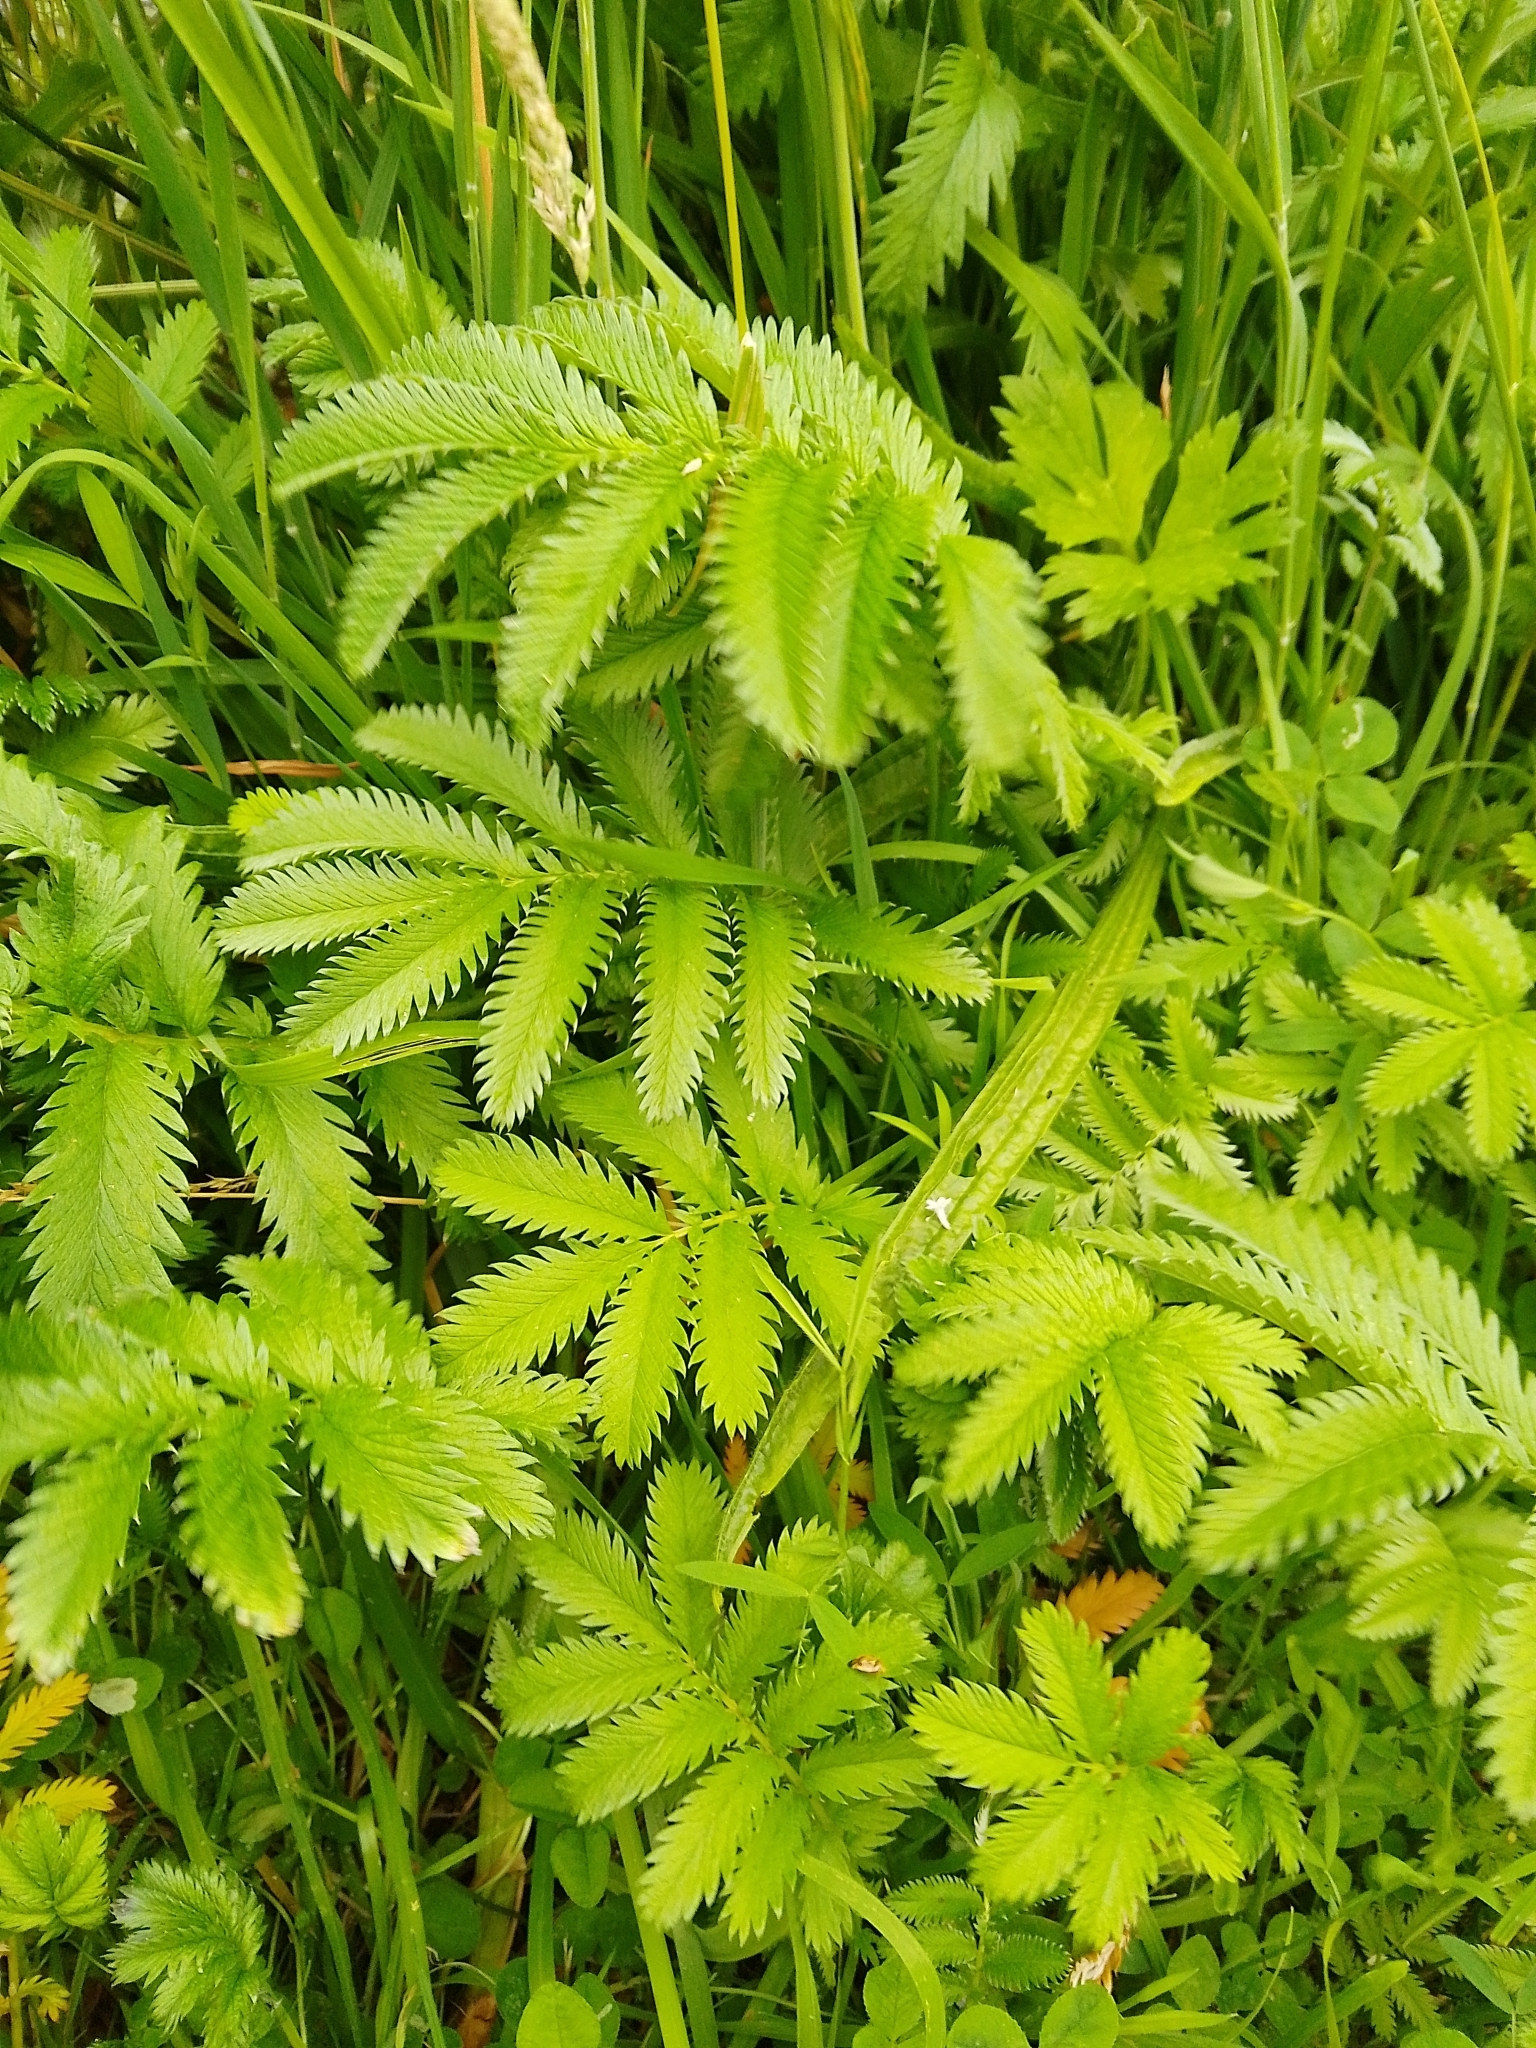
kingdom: Plantae
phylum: Tracheophyta
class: Magnoliopsida
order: Rosales
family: Rosaceae
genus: Argentina
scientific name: Argentina anserina
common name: Common silverweed
